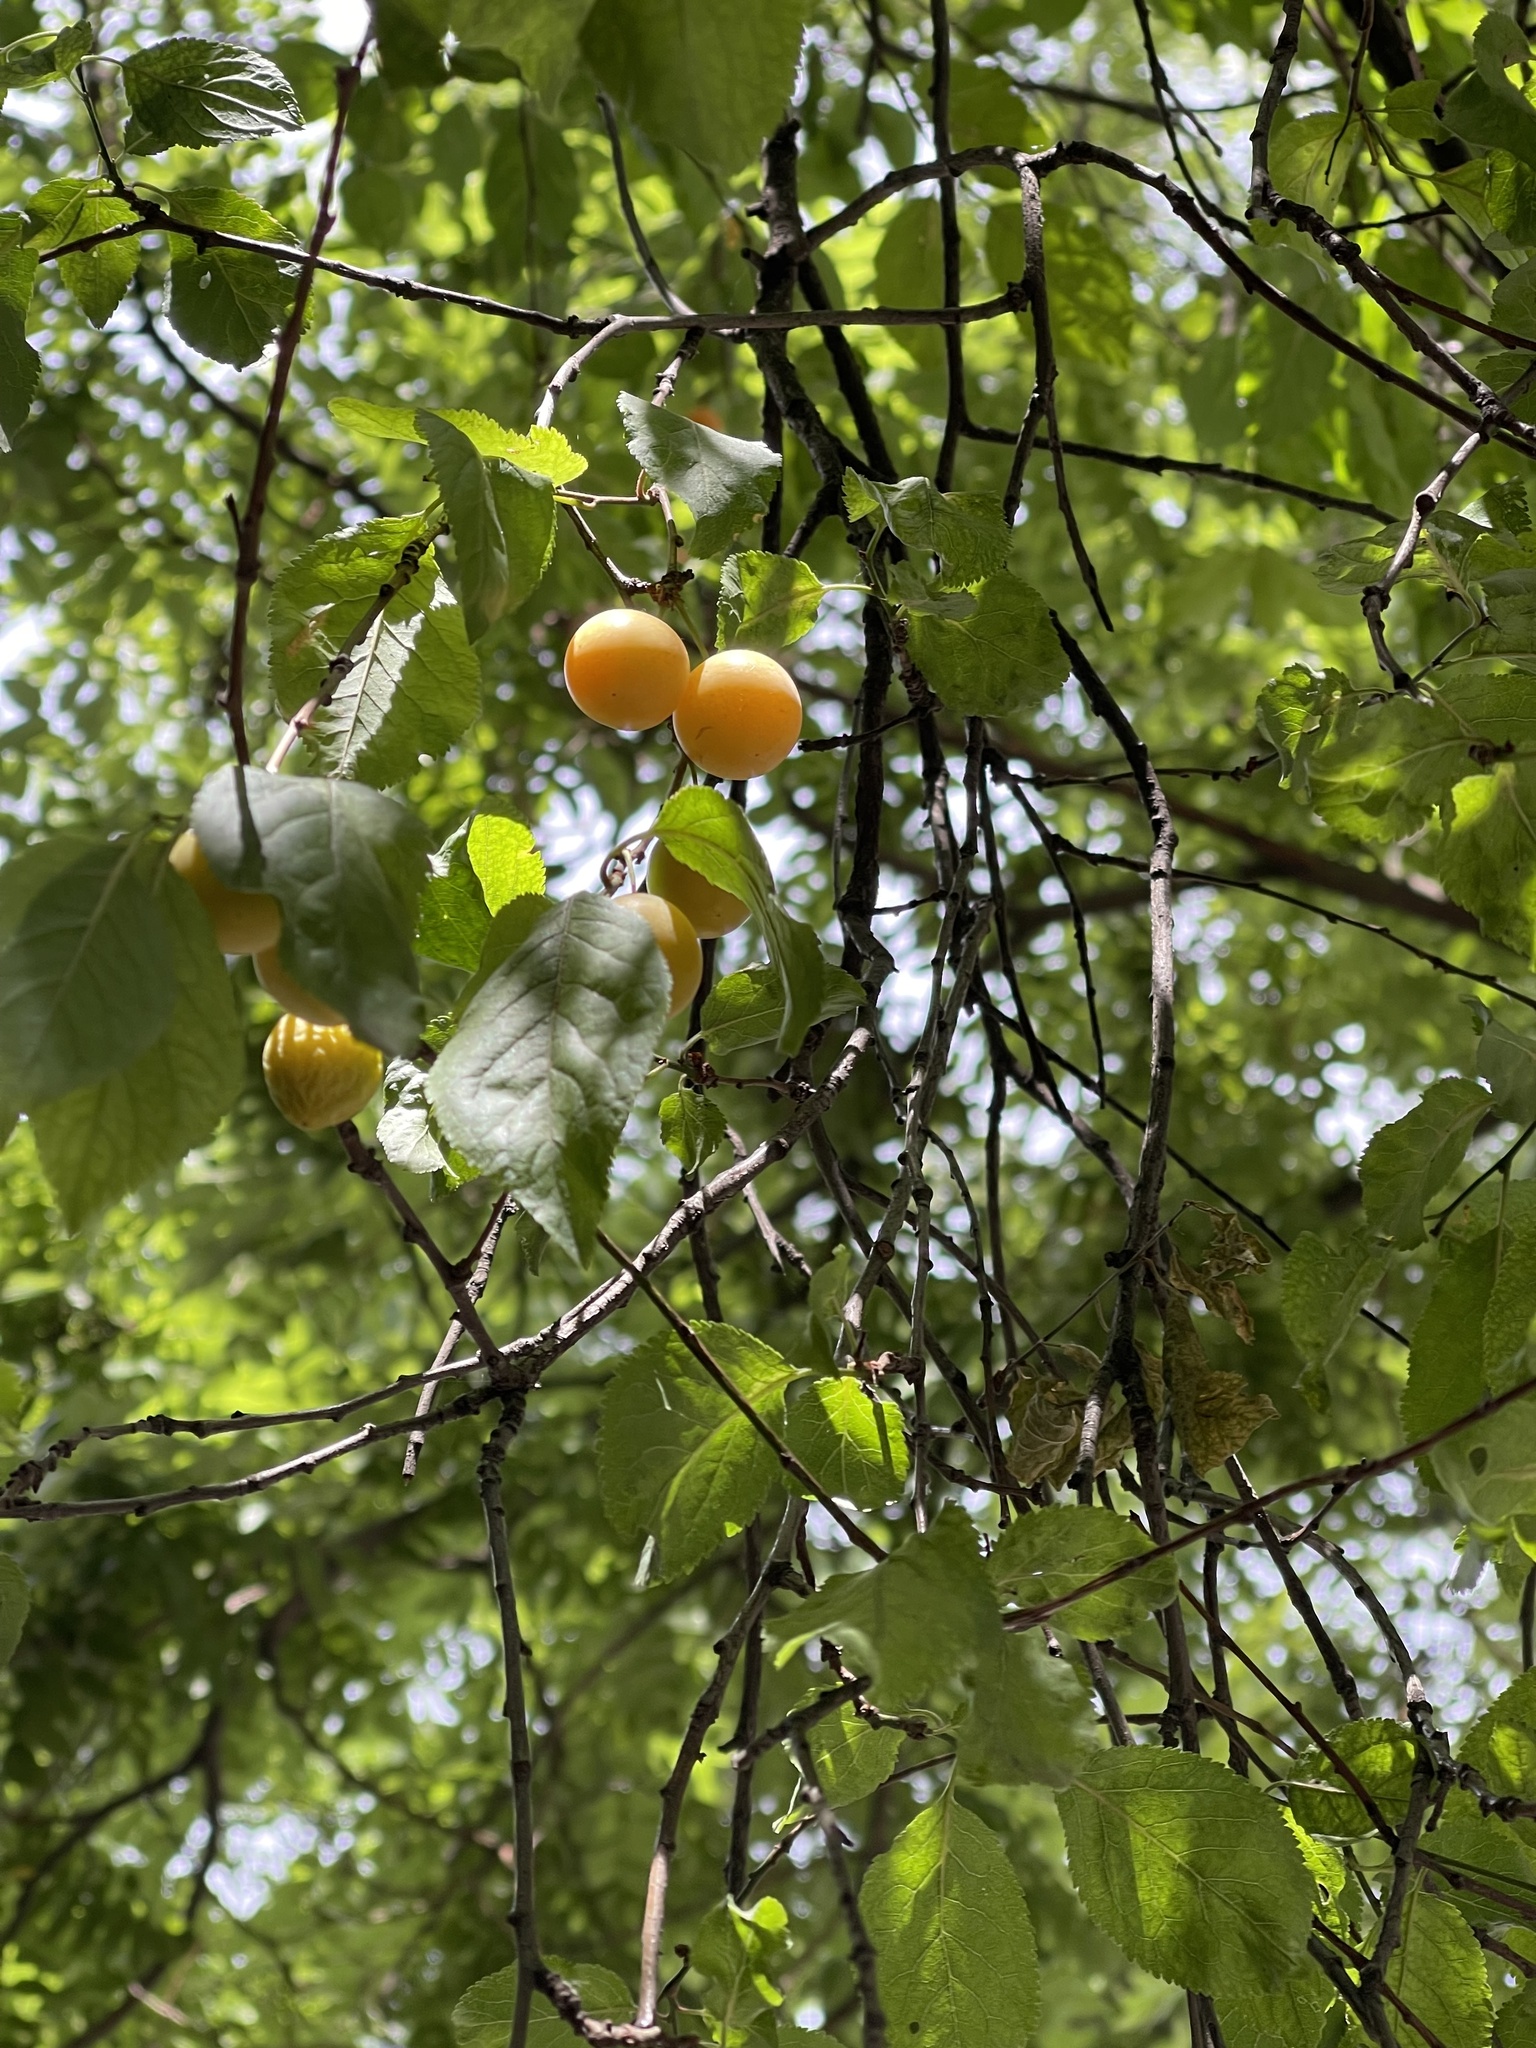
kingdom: Plantae
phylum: Tracheophyta
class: Magnoliopsida
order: Rosales
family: Rosaceae
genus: Prunus
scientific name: Prunus cerasifera
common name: Cherry plum
